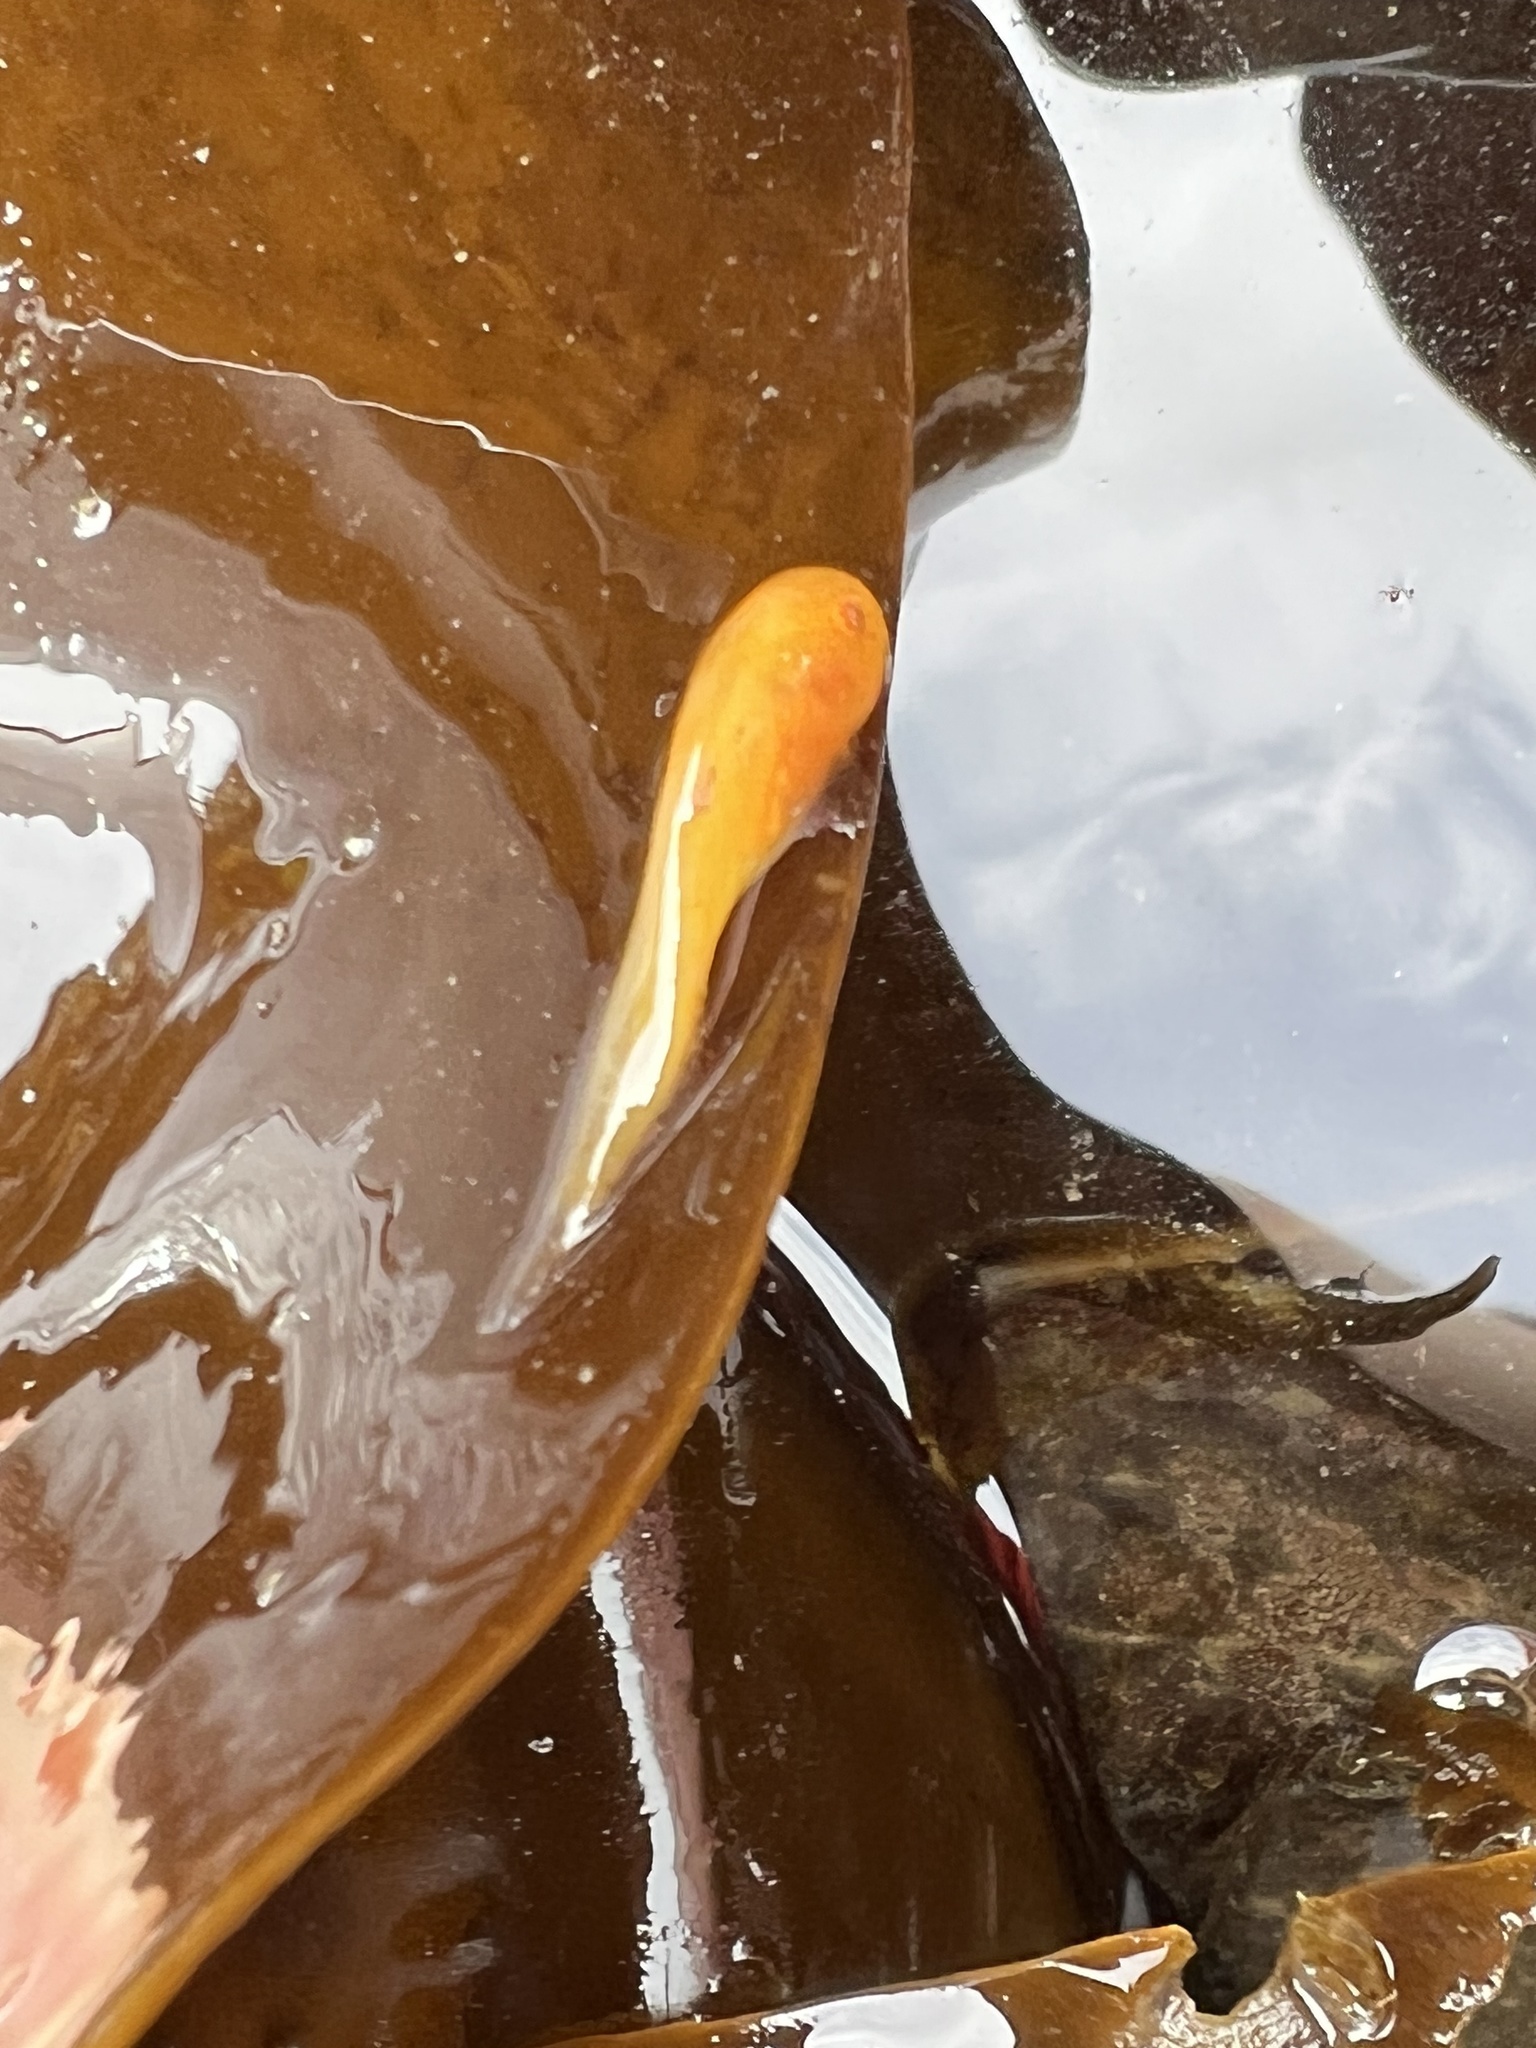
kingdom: Animalia
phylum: Chordata
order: Scorpaeniformes
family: Liparidae
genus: Liparis
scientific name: Liparis florae
